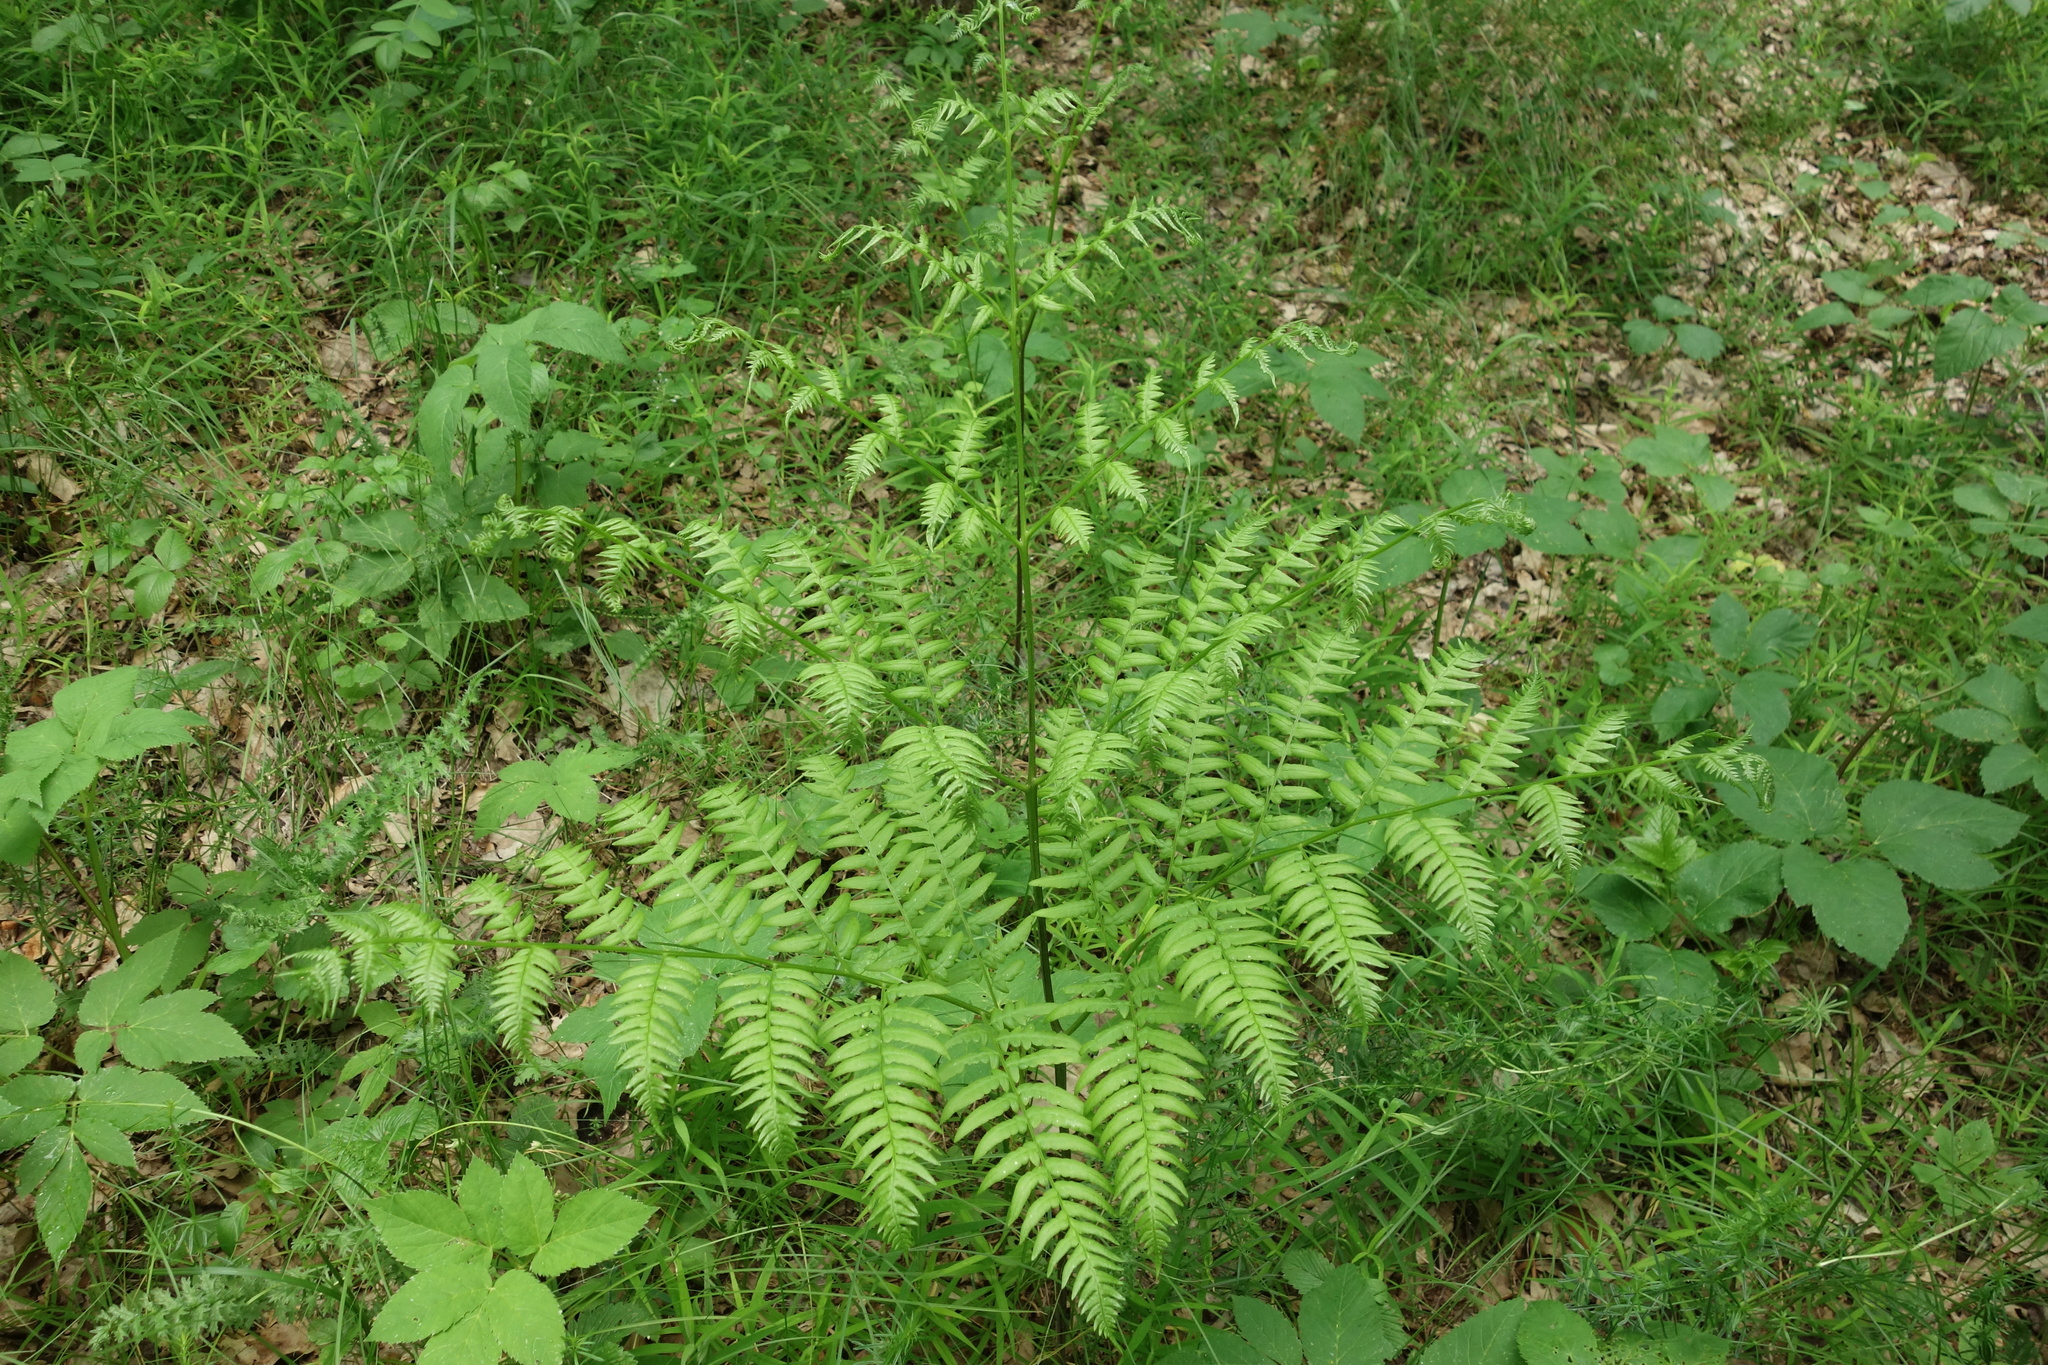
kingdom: Plantae
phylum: Tracheophyta
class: Polypodiopsida
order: Polypodiales
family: Dennstaedtiaceae
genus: Pteridium
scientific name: Pteridium aquilinum
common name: Bracken
